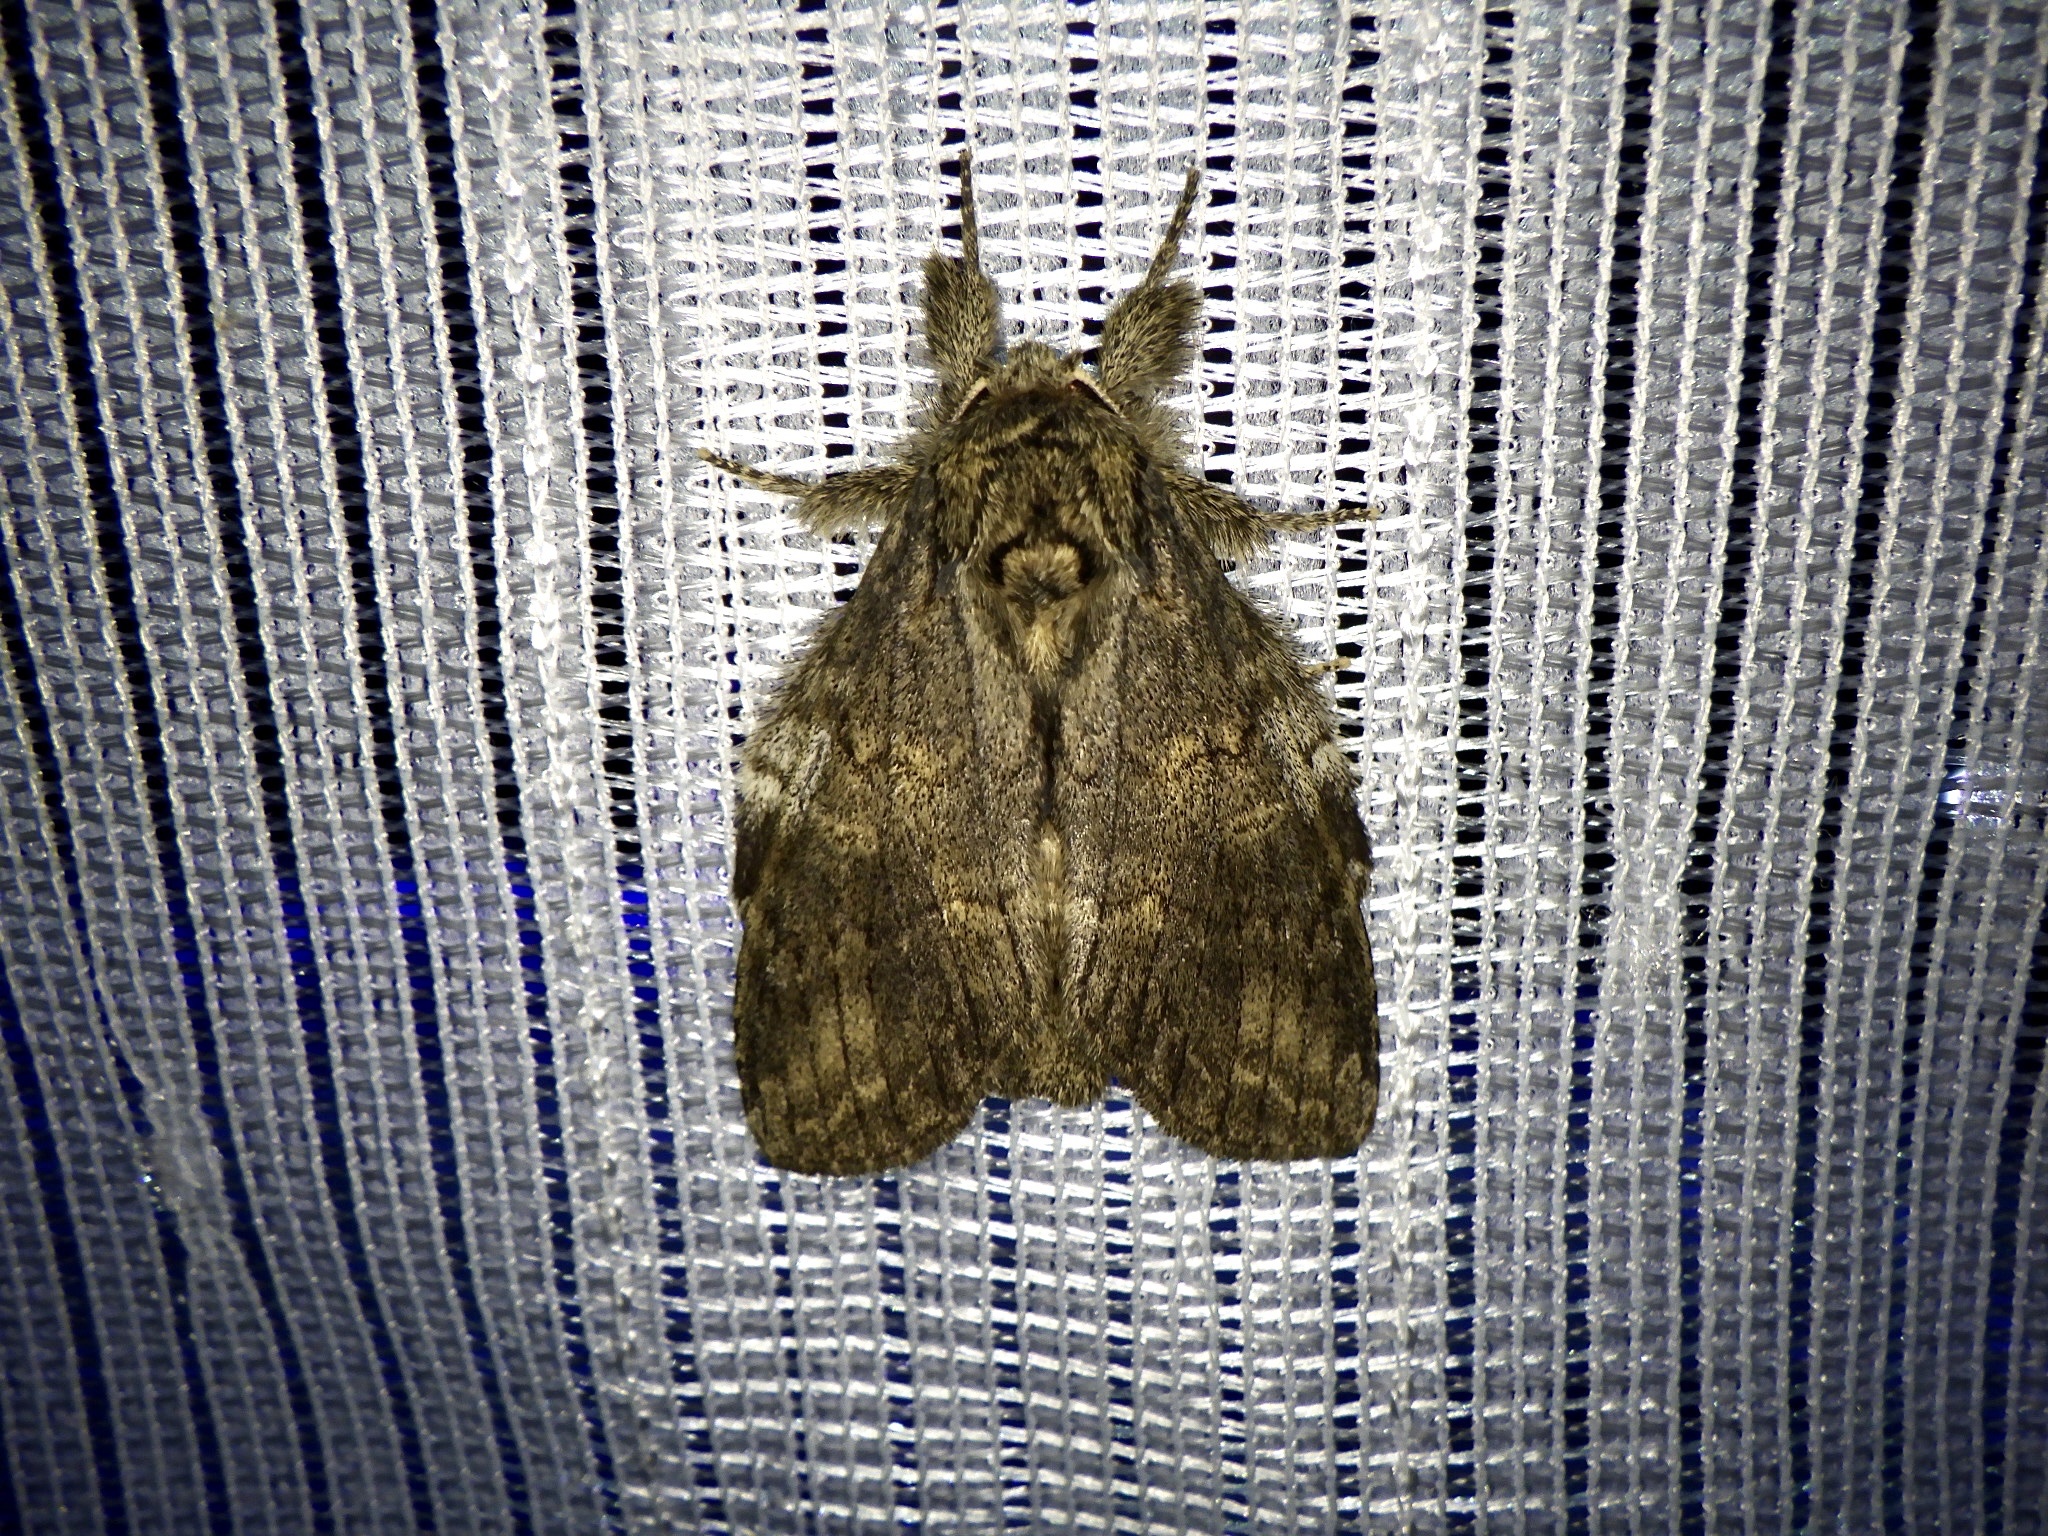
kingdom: Animalia
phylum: Arthropoda
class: Insecta
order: Lepidoptera
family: Notodontidae
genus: Peridea
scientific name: Peridea gigantea
